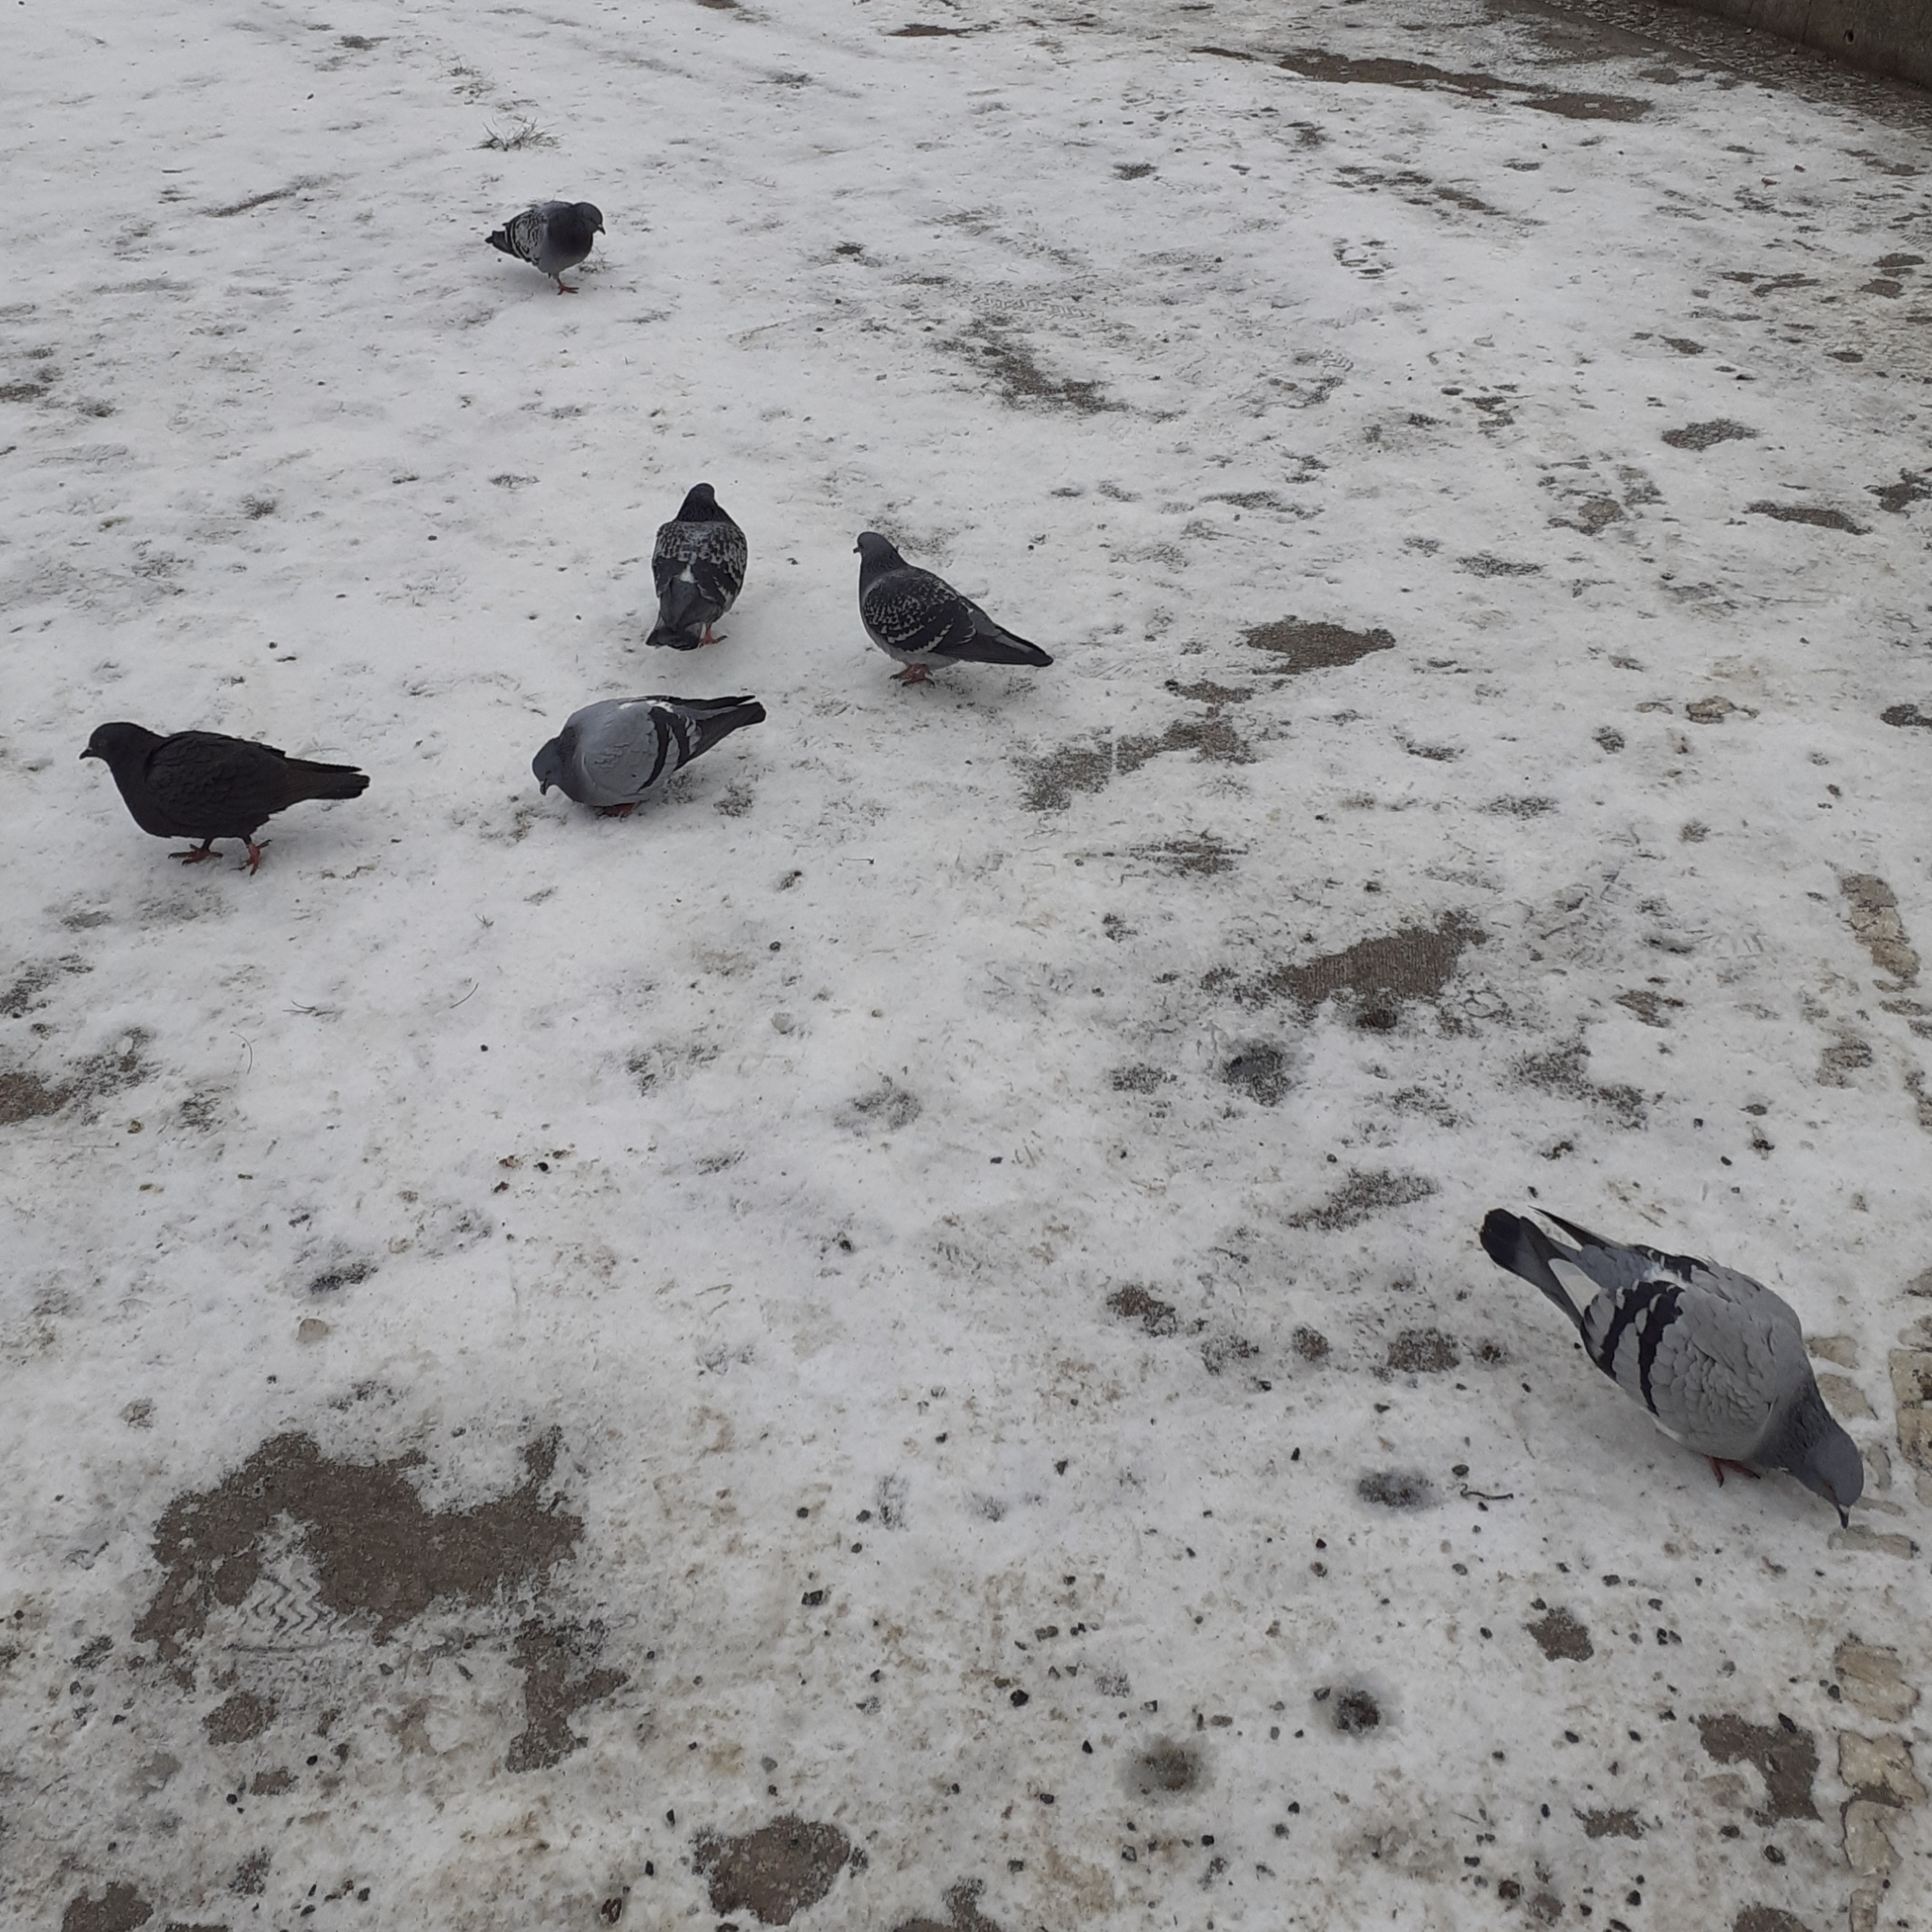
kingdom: Animalia
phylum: Chordata
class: Aves
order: Columbiformes
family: Columbidae
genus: Columba
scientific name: Columba livia
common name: Rock pigeon
